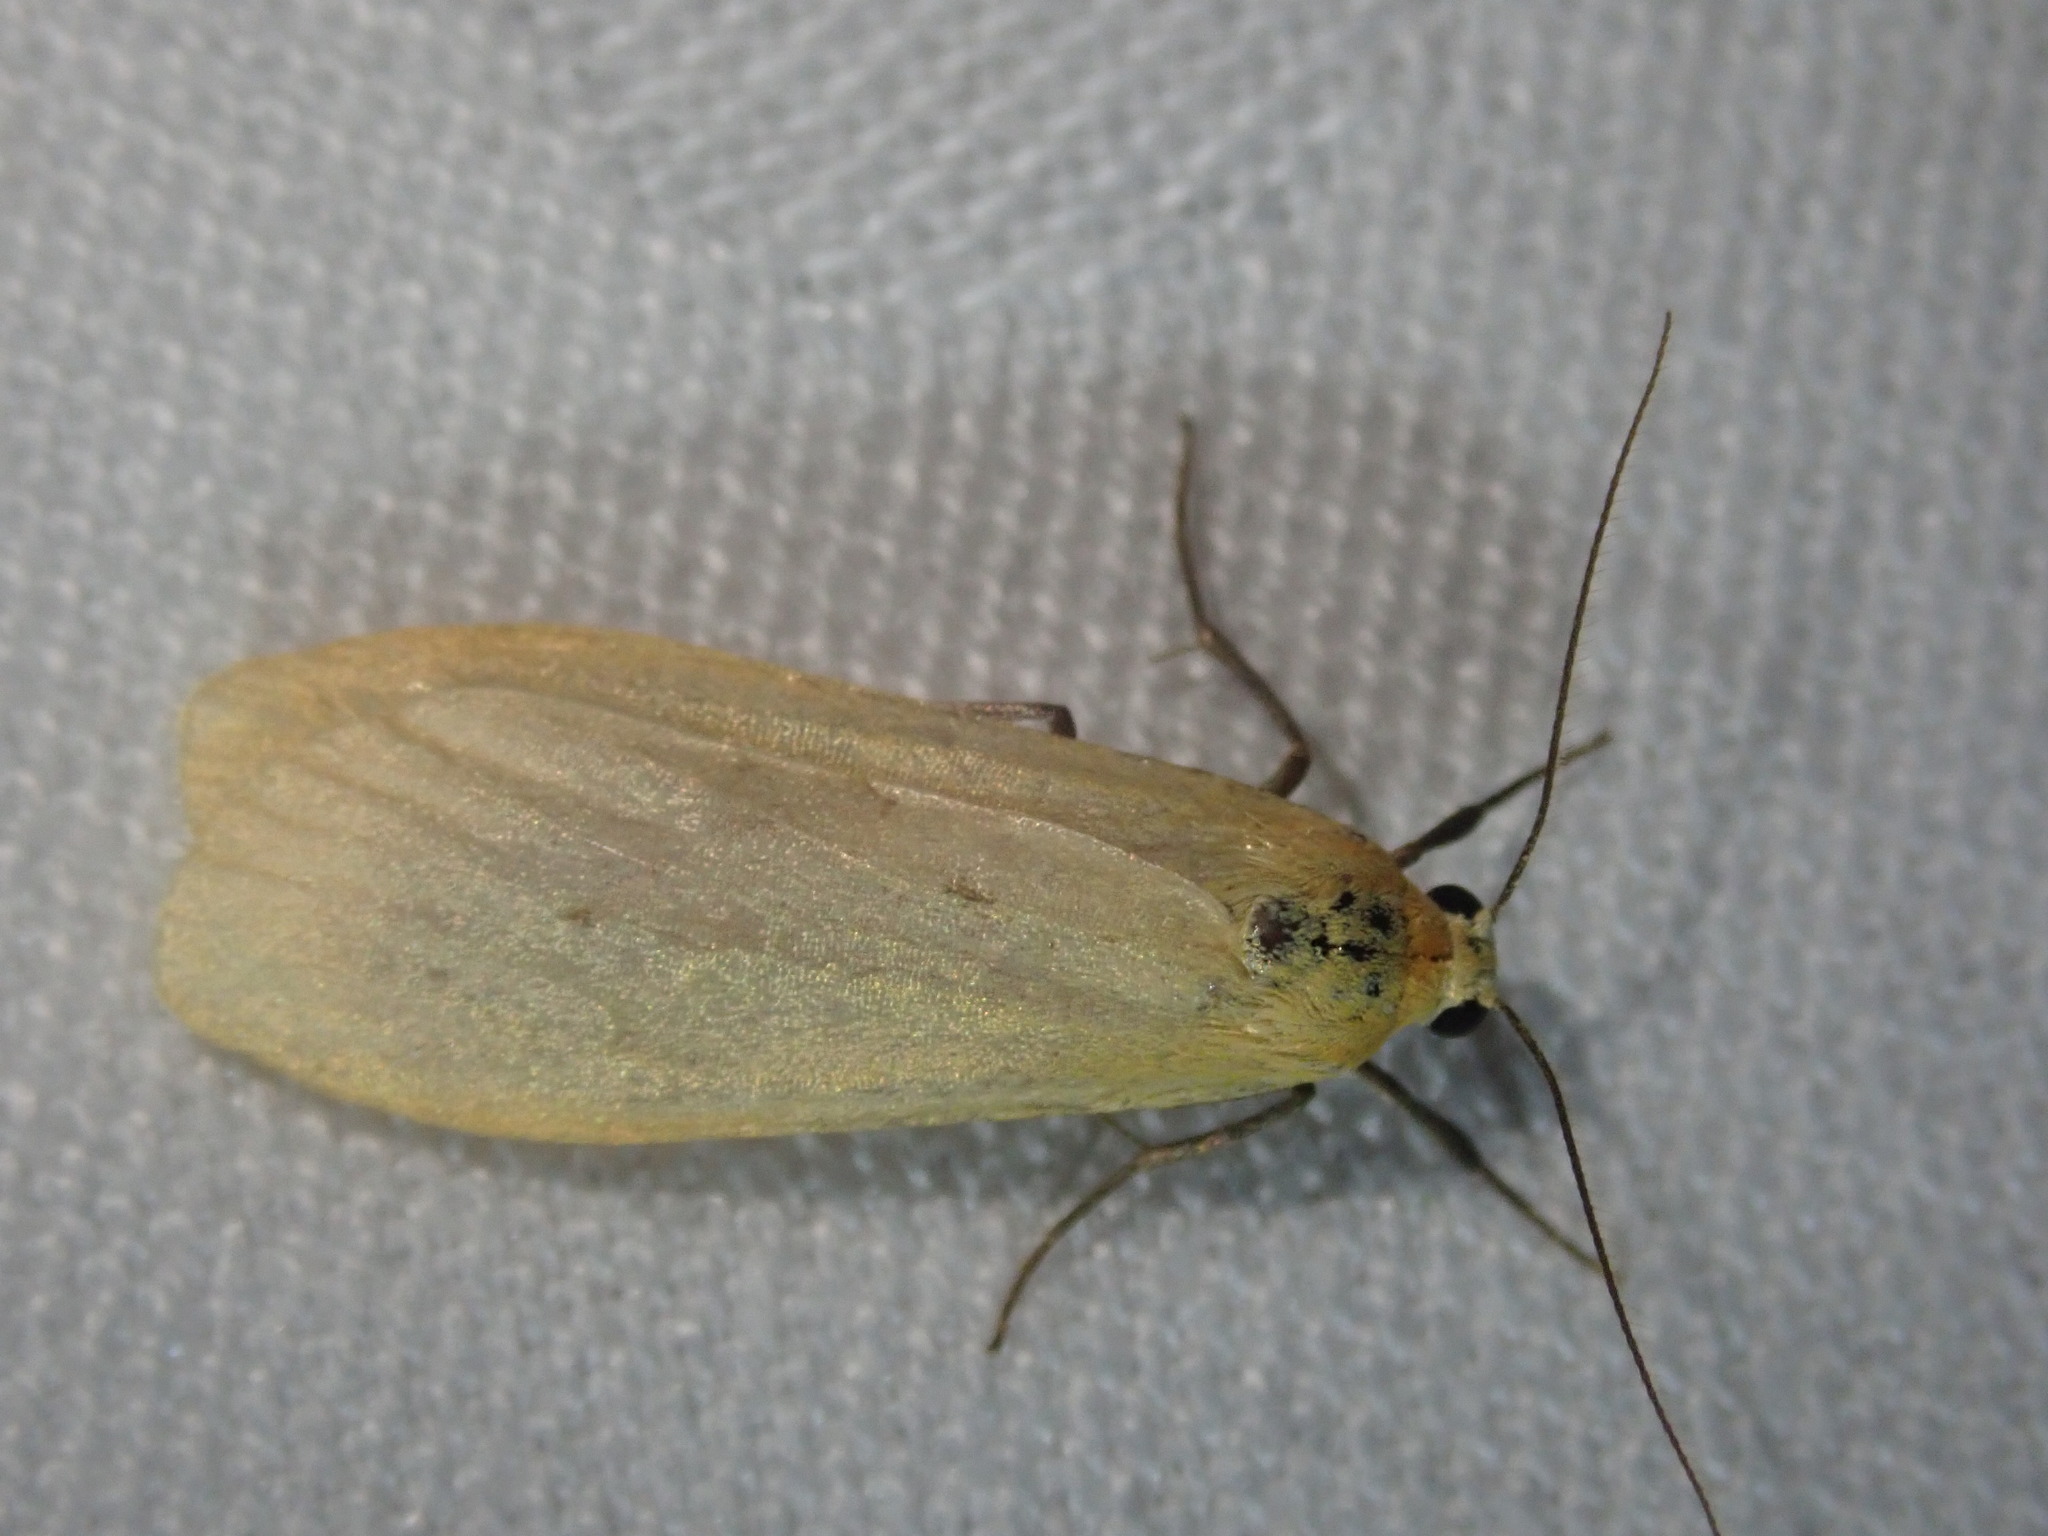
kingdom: Animalia
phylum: Arthropoda
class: Insecta
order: Lepidoptera
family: Erebidae
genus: Wittia
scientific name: Wittia sororcula
